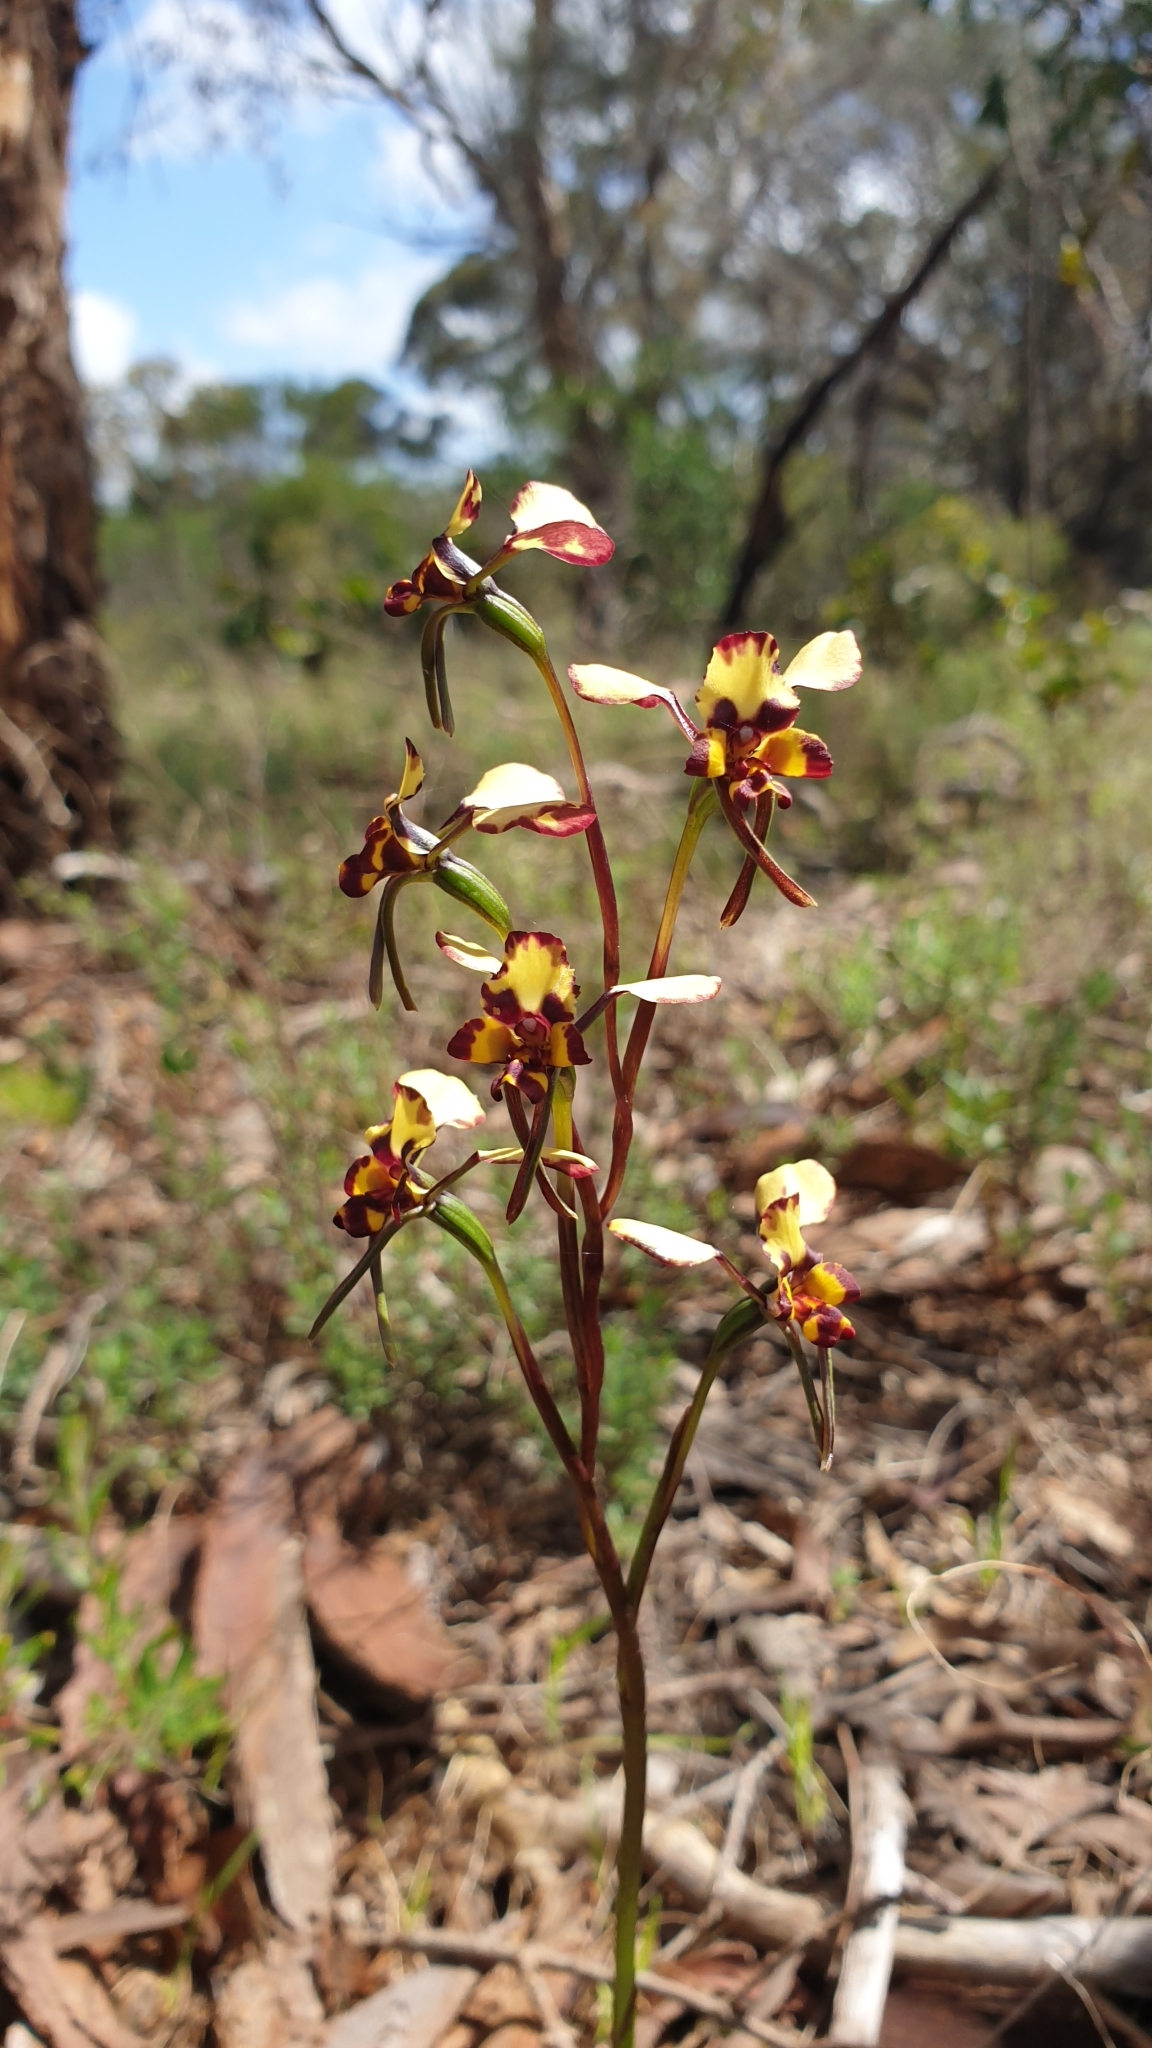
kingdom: Plantae
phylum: Tracheophyta
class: Liliopsida
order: Asparagales
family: Orchidaceae
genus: Diuris
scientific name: Diuris pardina
